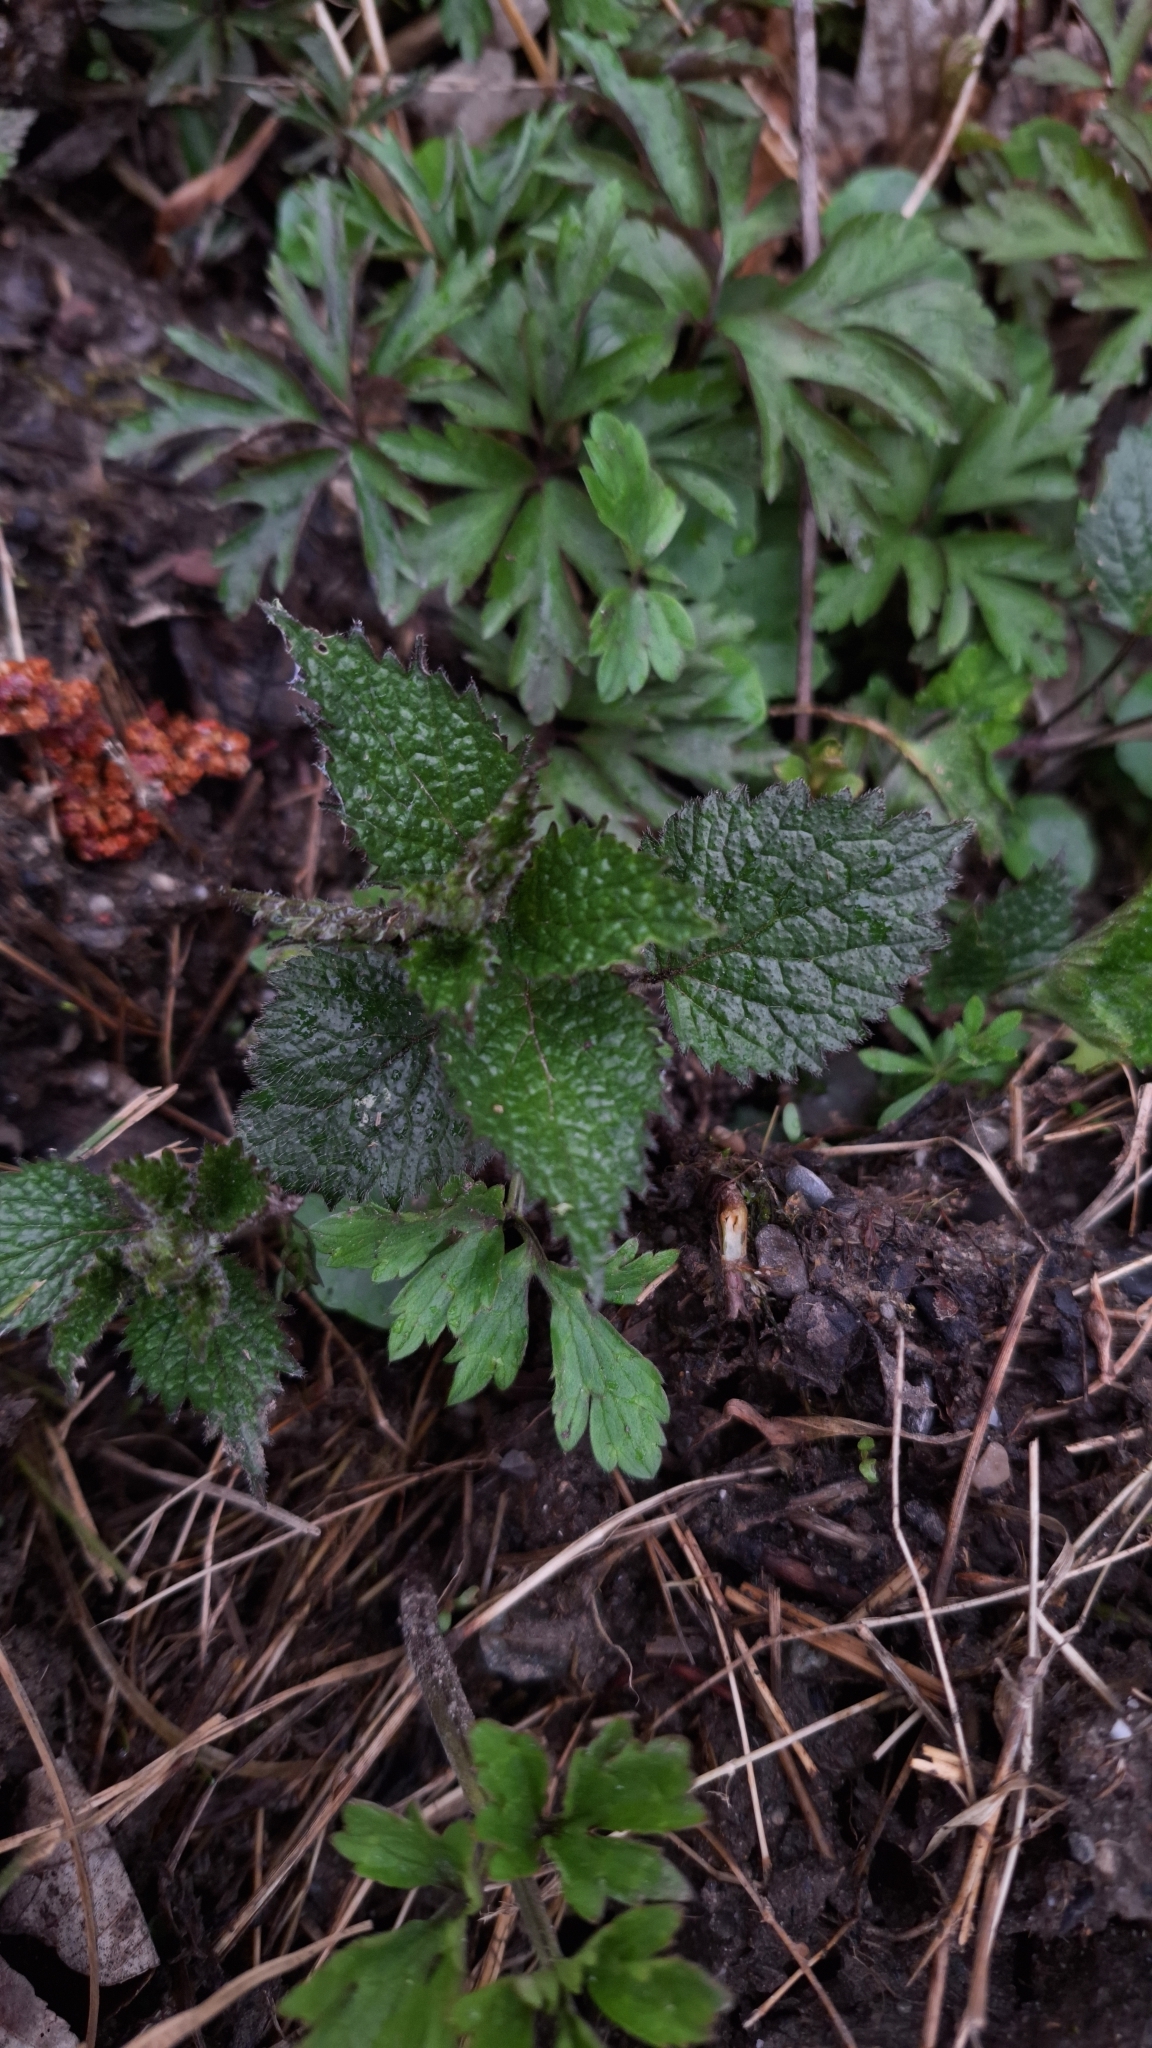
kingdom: Plantae
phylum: Tracheophyta
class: Magnoliopsida
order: Lamiales
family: Lamiaceae
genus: Lamium
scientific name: Lamium galeobdolon
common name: Yellow archangel
